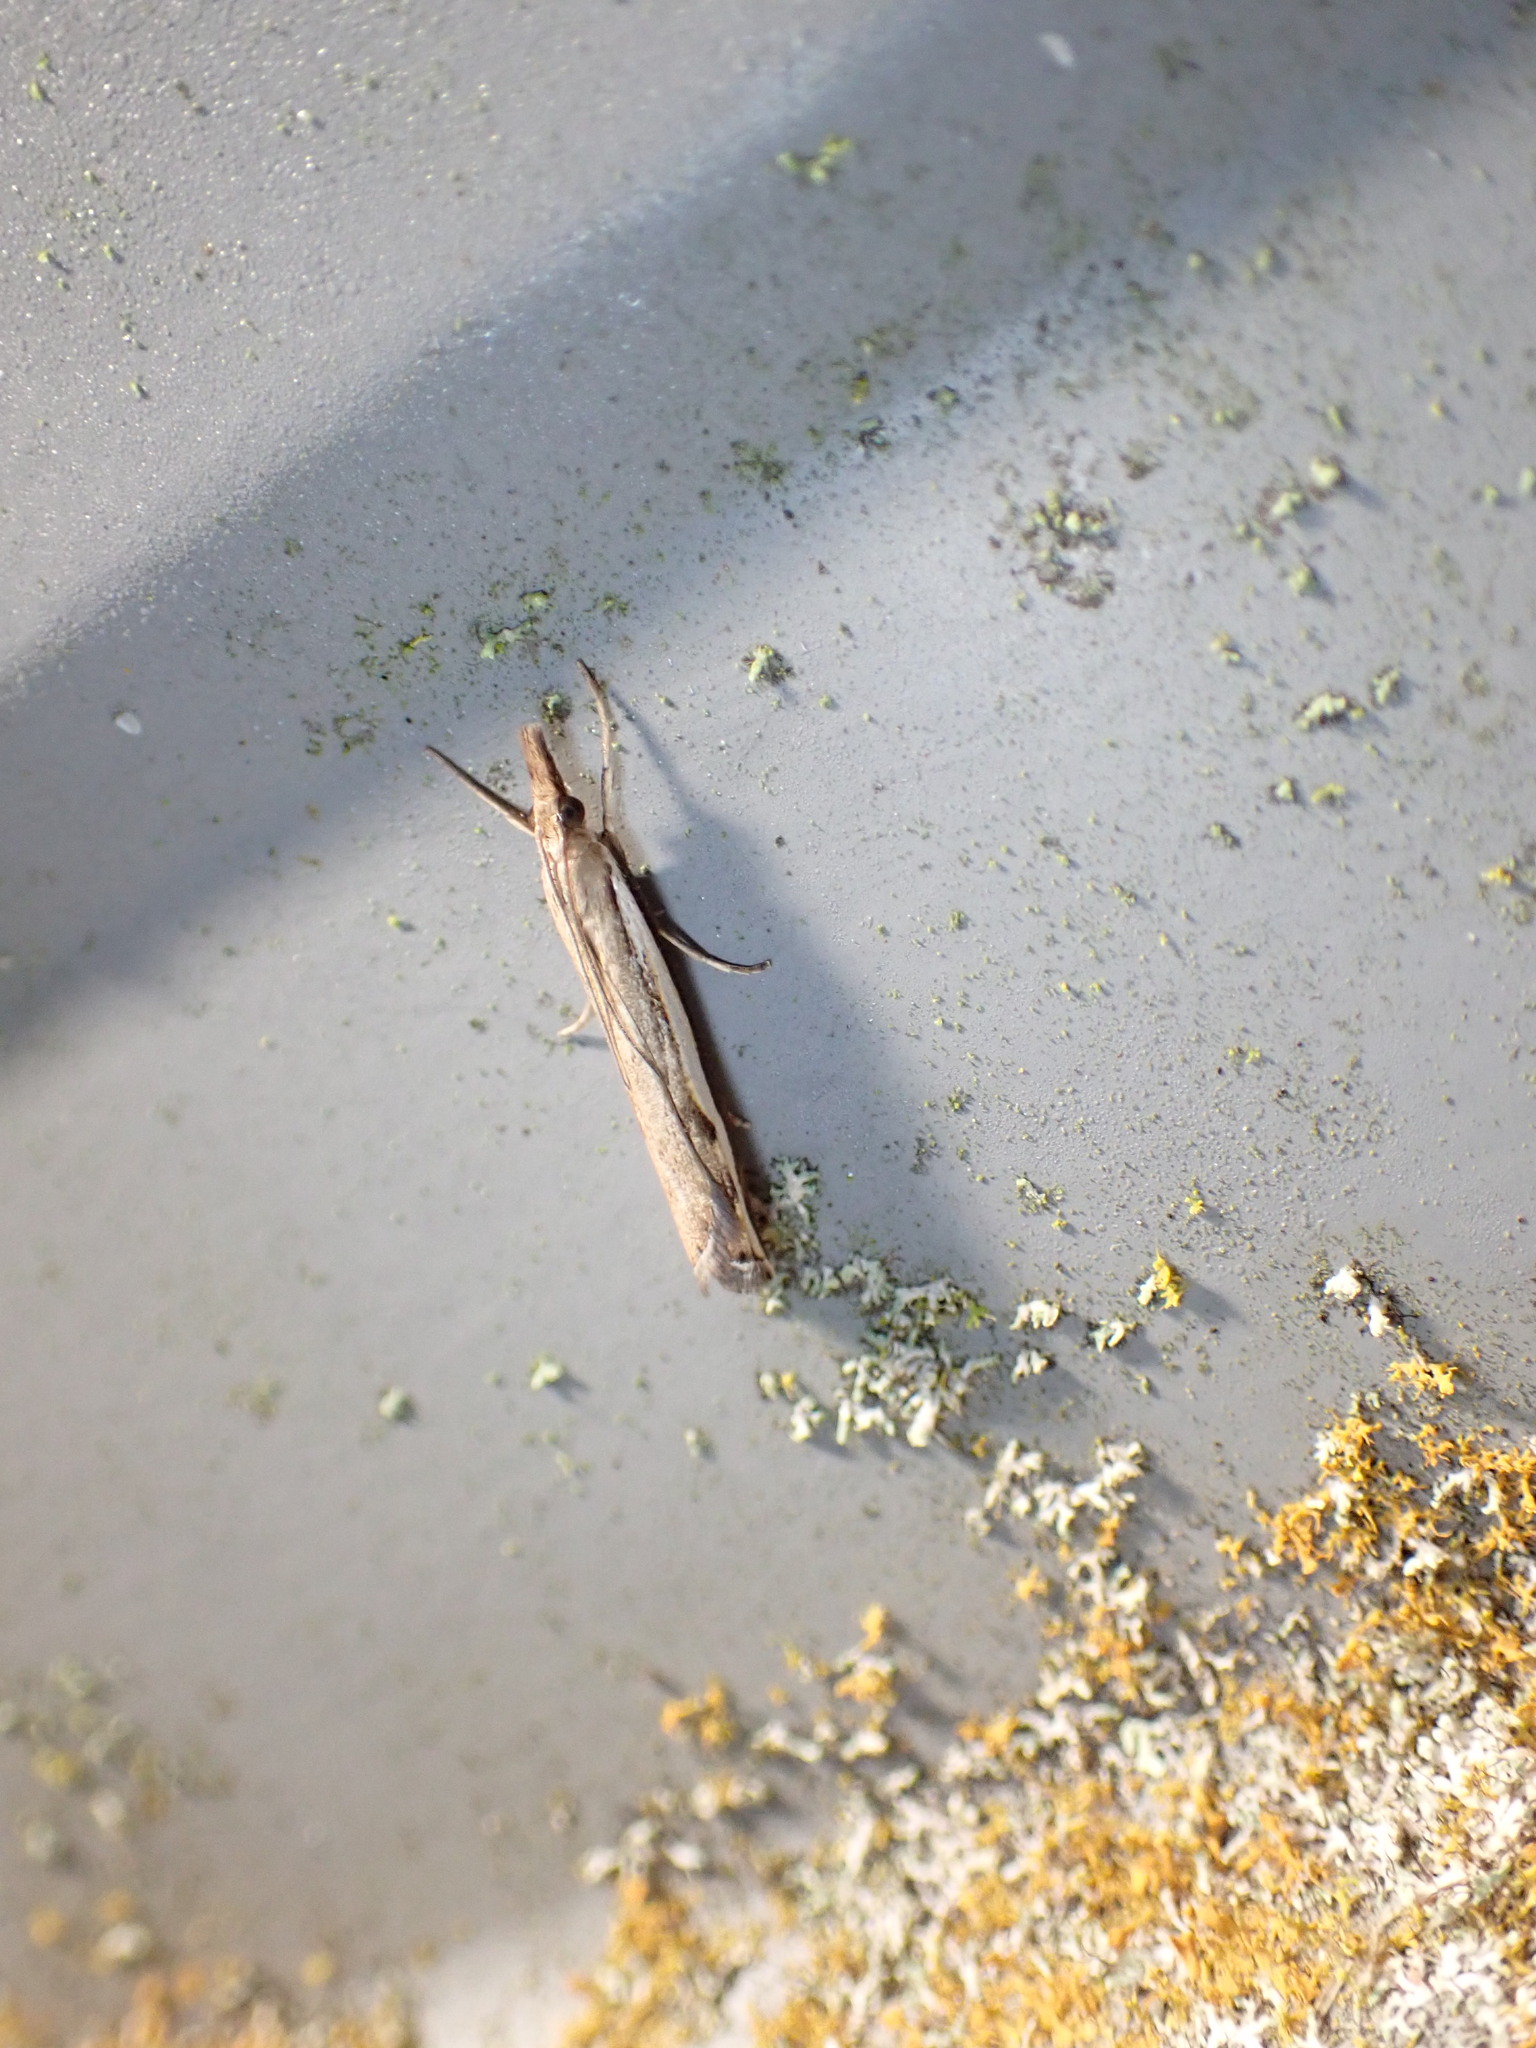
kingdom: Animalia
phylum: Arthropoda
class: Insecta
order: Lepidoptera
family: Crambidae
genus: Orocrambus
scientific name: Orocrambus flexuosellus
